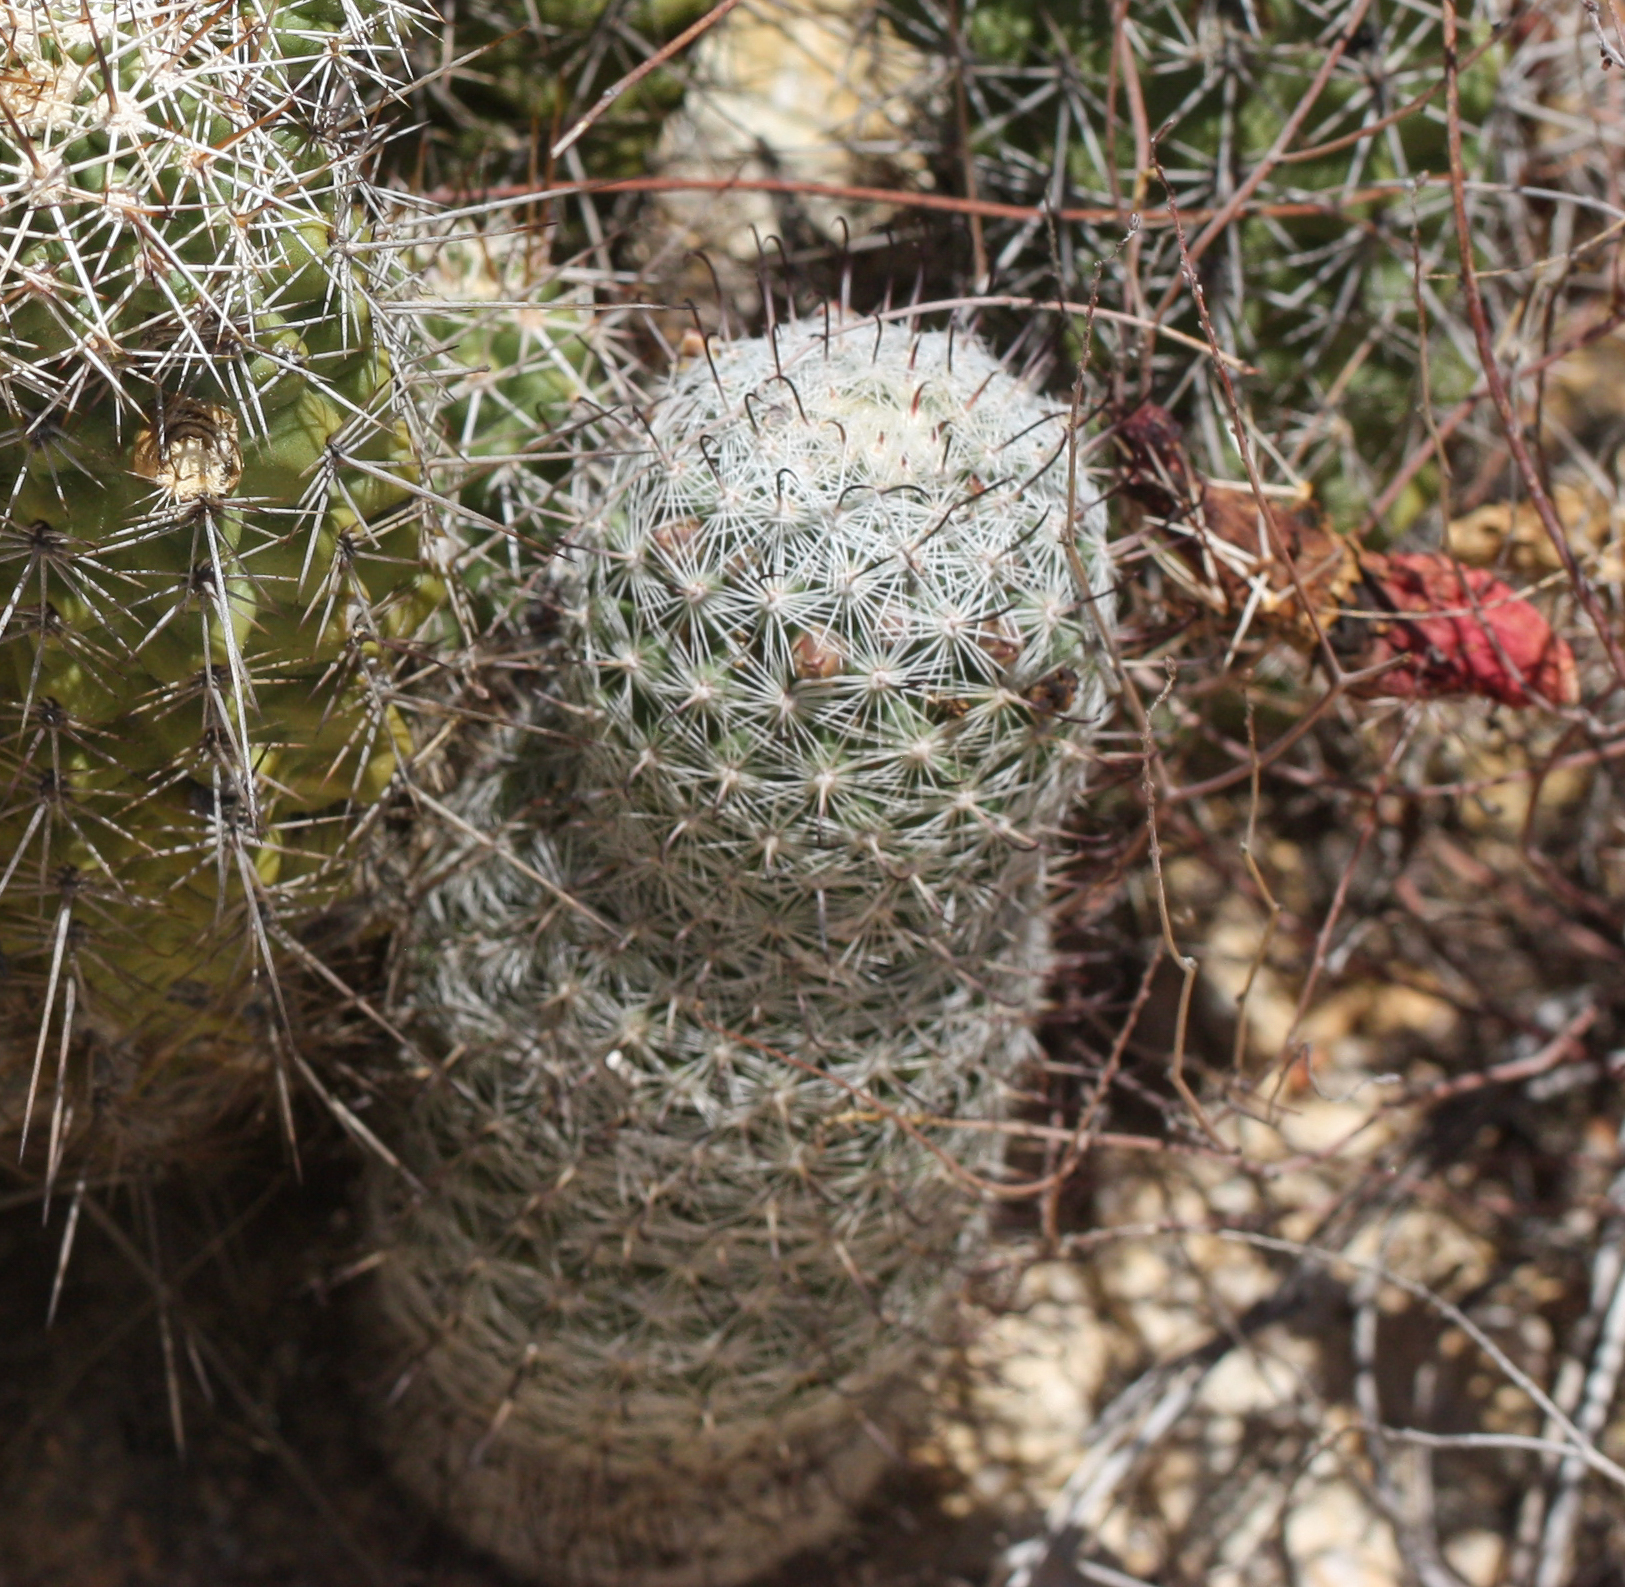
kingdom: Plantae
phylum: Tracheophyta
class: Magnoliopsida
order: Caryophyllales
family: Cactaceae
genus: Cochemiea
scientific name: Cochemiea grahamii
